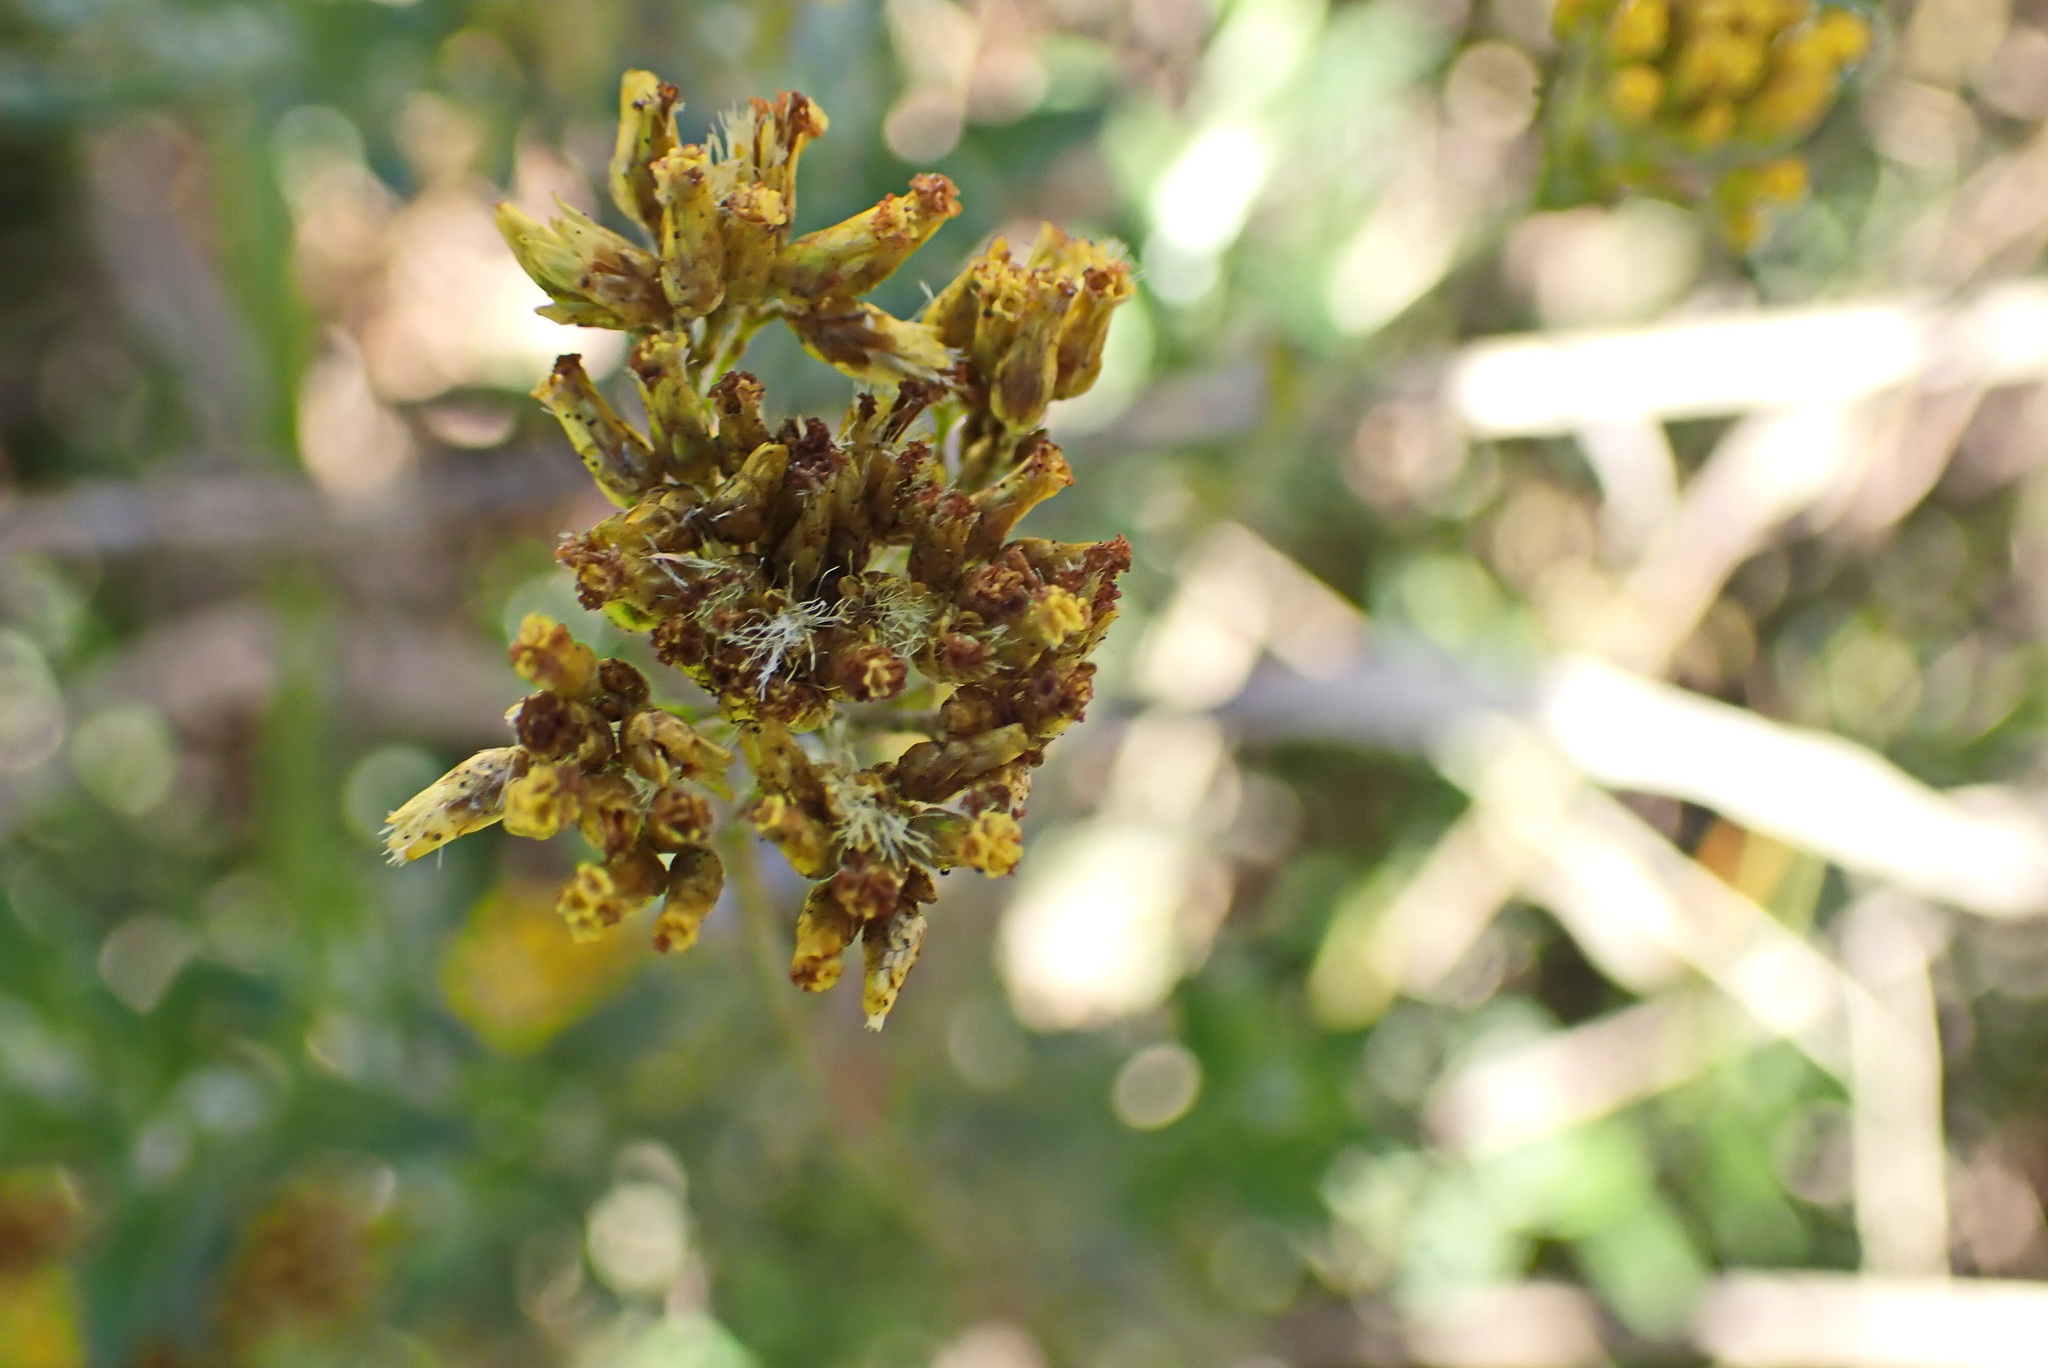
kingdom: Plantae
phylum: Tracheophyta
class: Magnoliopsida
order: Asterales
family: Asteraceae
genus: Helichrysum
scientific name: Helichrysum cymosum
